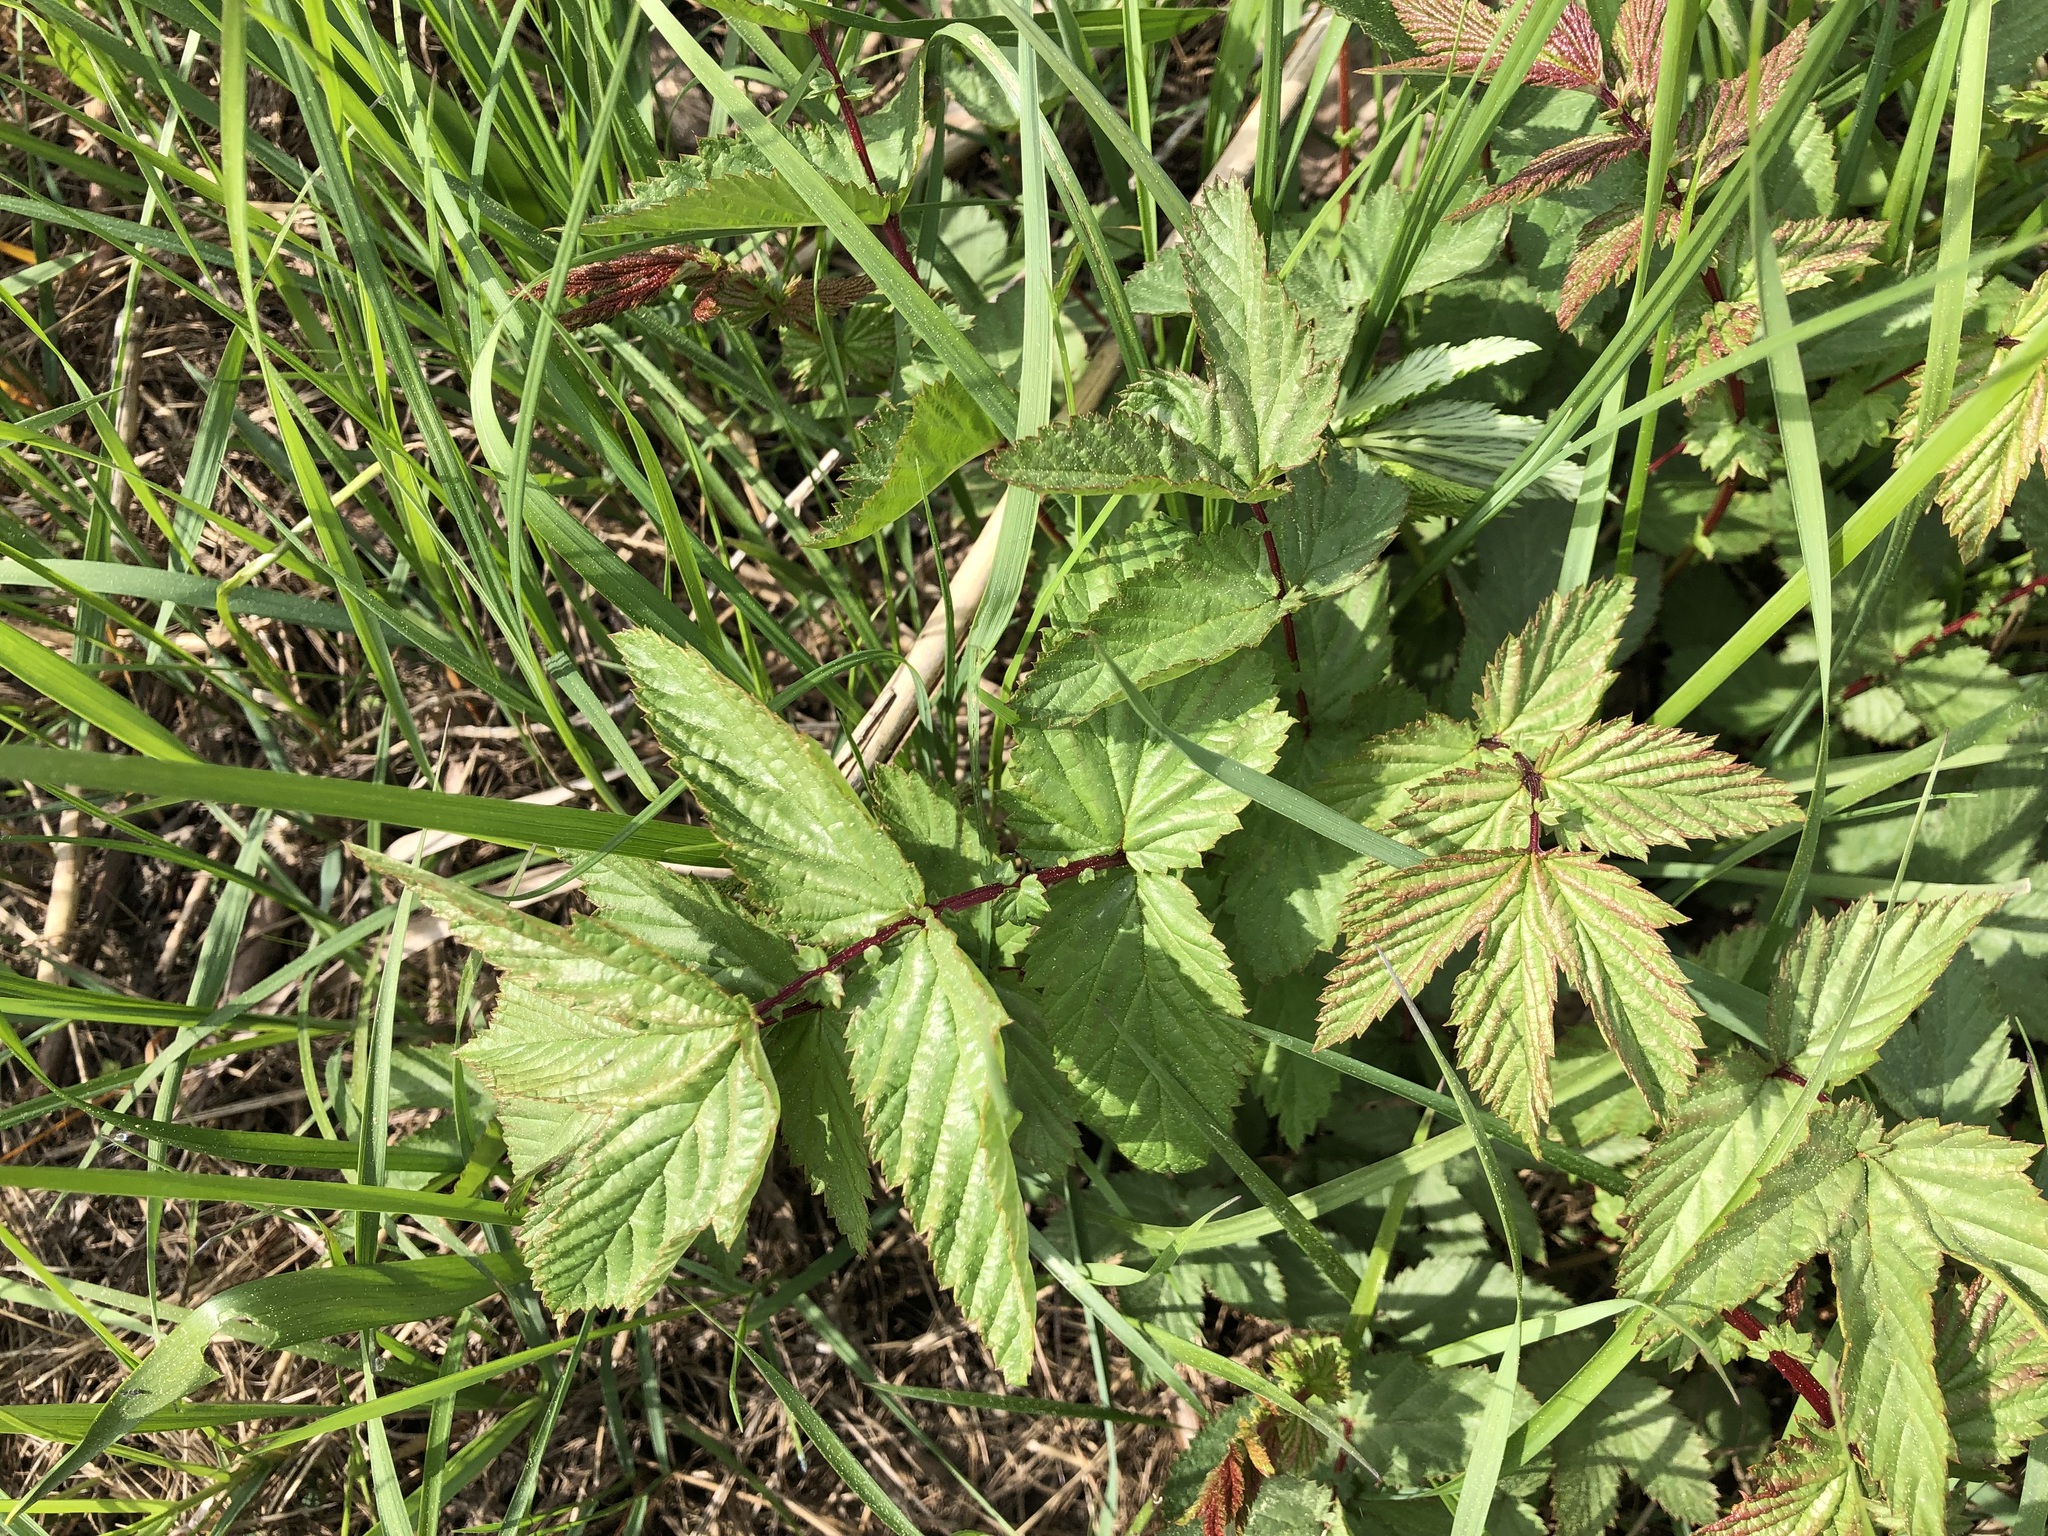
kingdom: Plantae
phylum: Tracheophyta
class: Magnoliopsida
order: Rosales
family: Rosaceae
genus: Filipendula
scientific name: Filipendula ulmaria
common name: Meadowsweet
